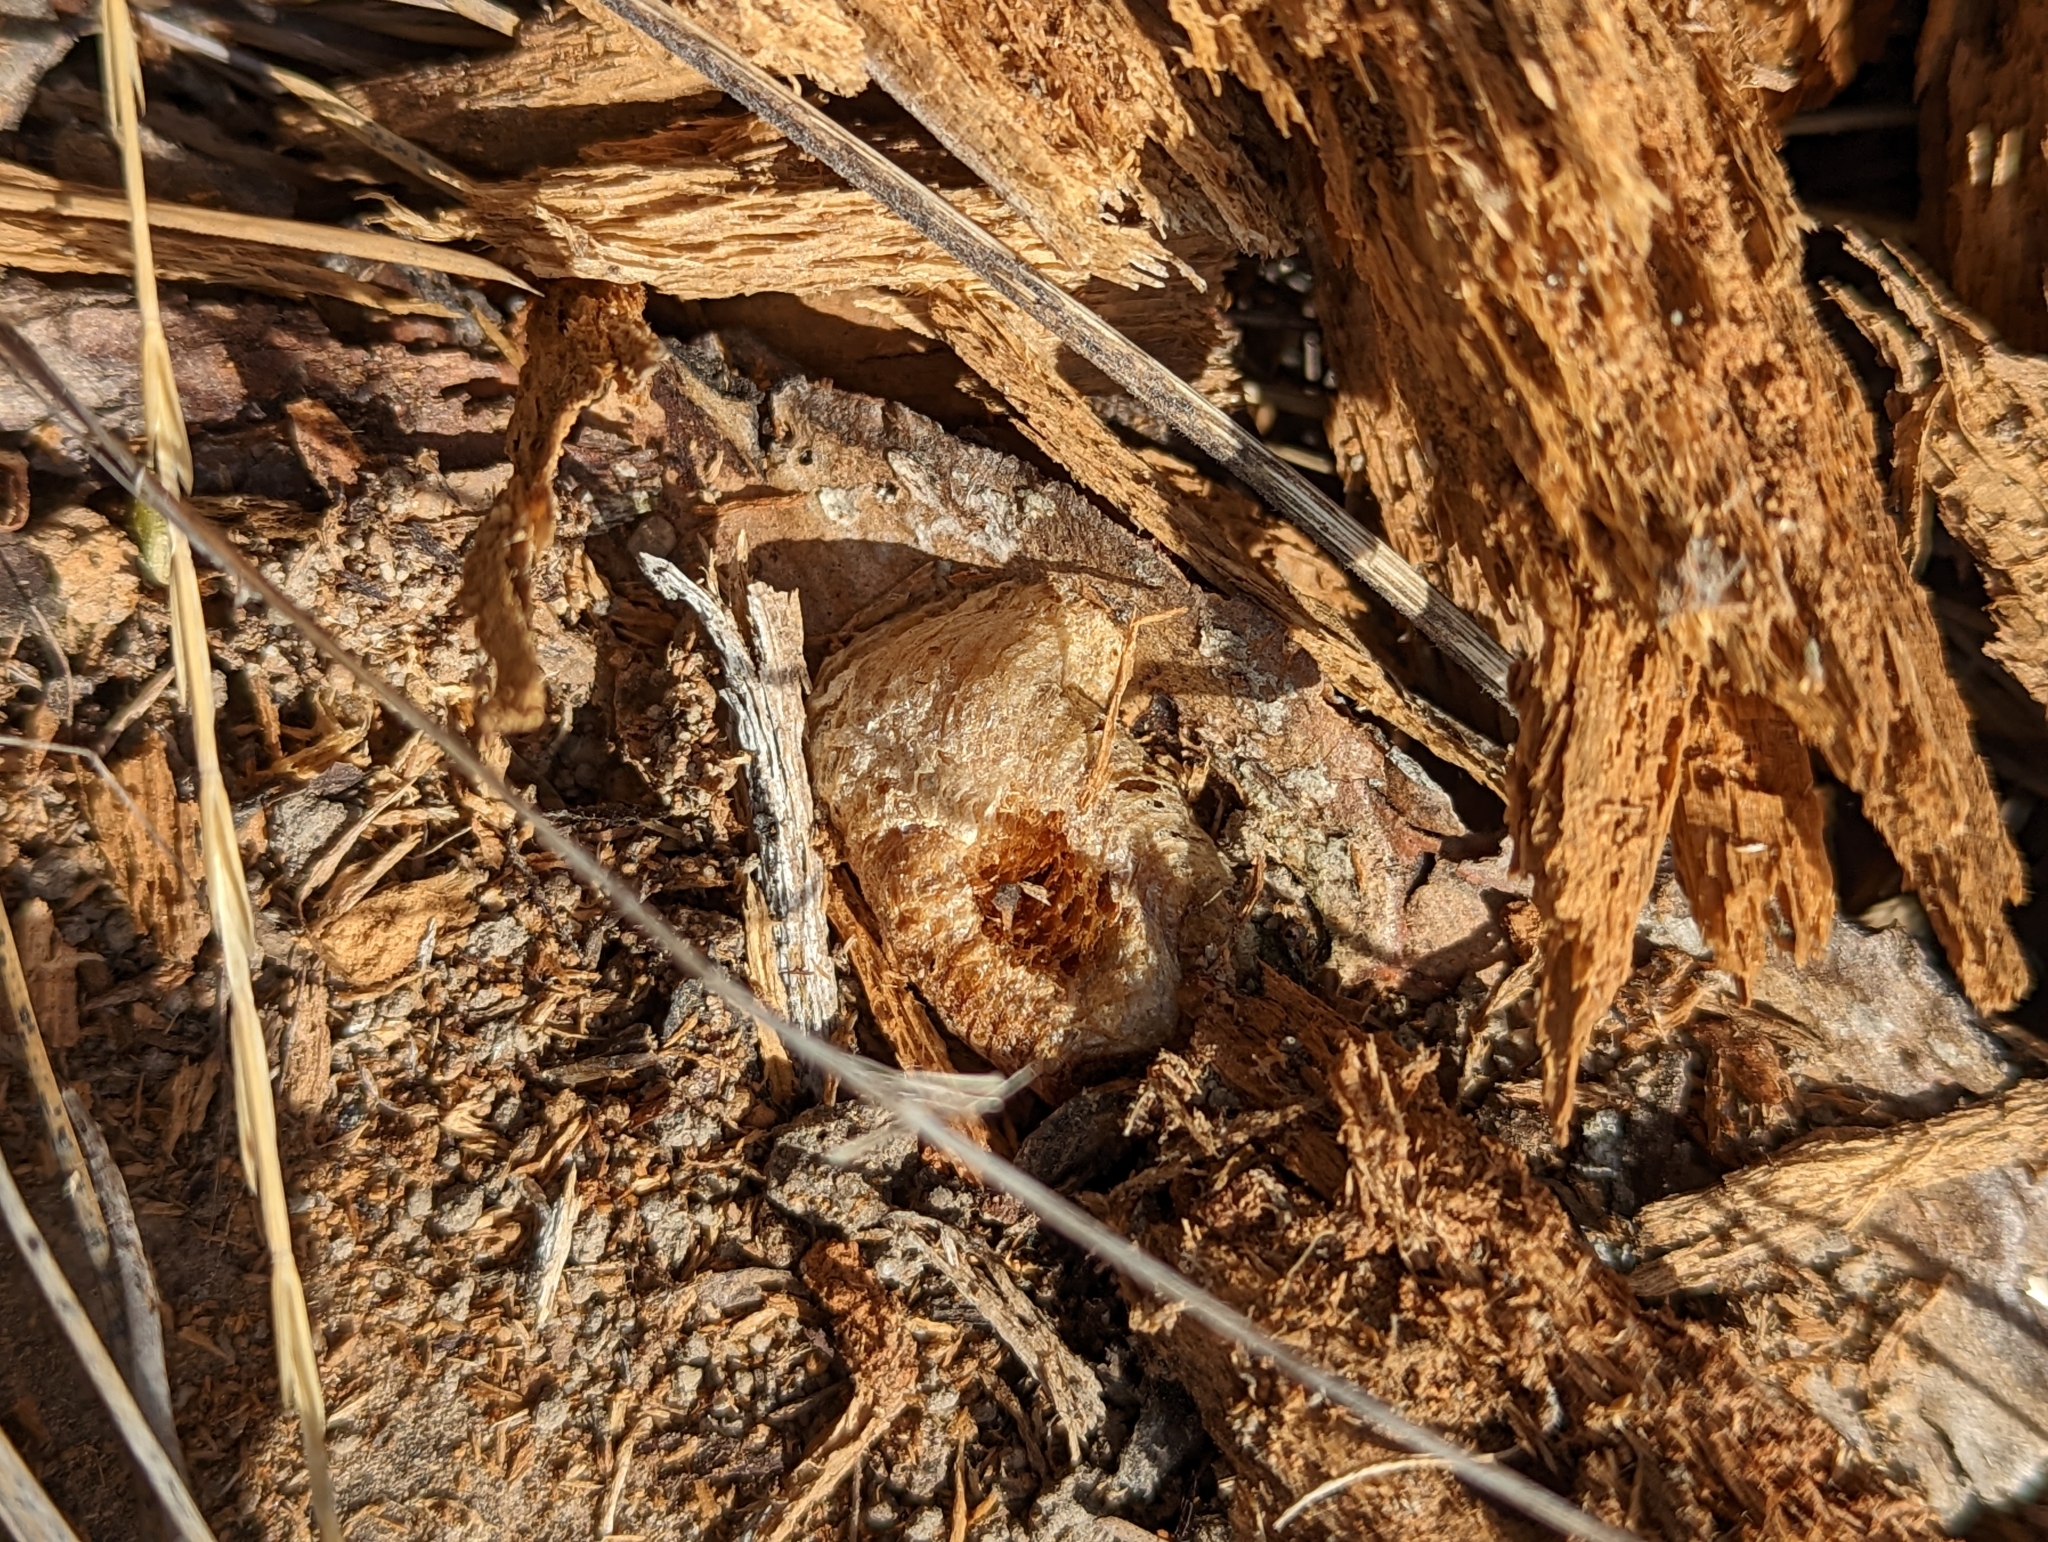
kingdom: Animalia
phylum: Arthropoda
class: Insecta
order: Mantodea
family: Mantidae
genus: Mantis
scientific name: Mantis religiosa
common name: Praying mantis
